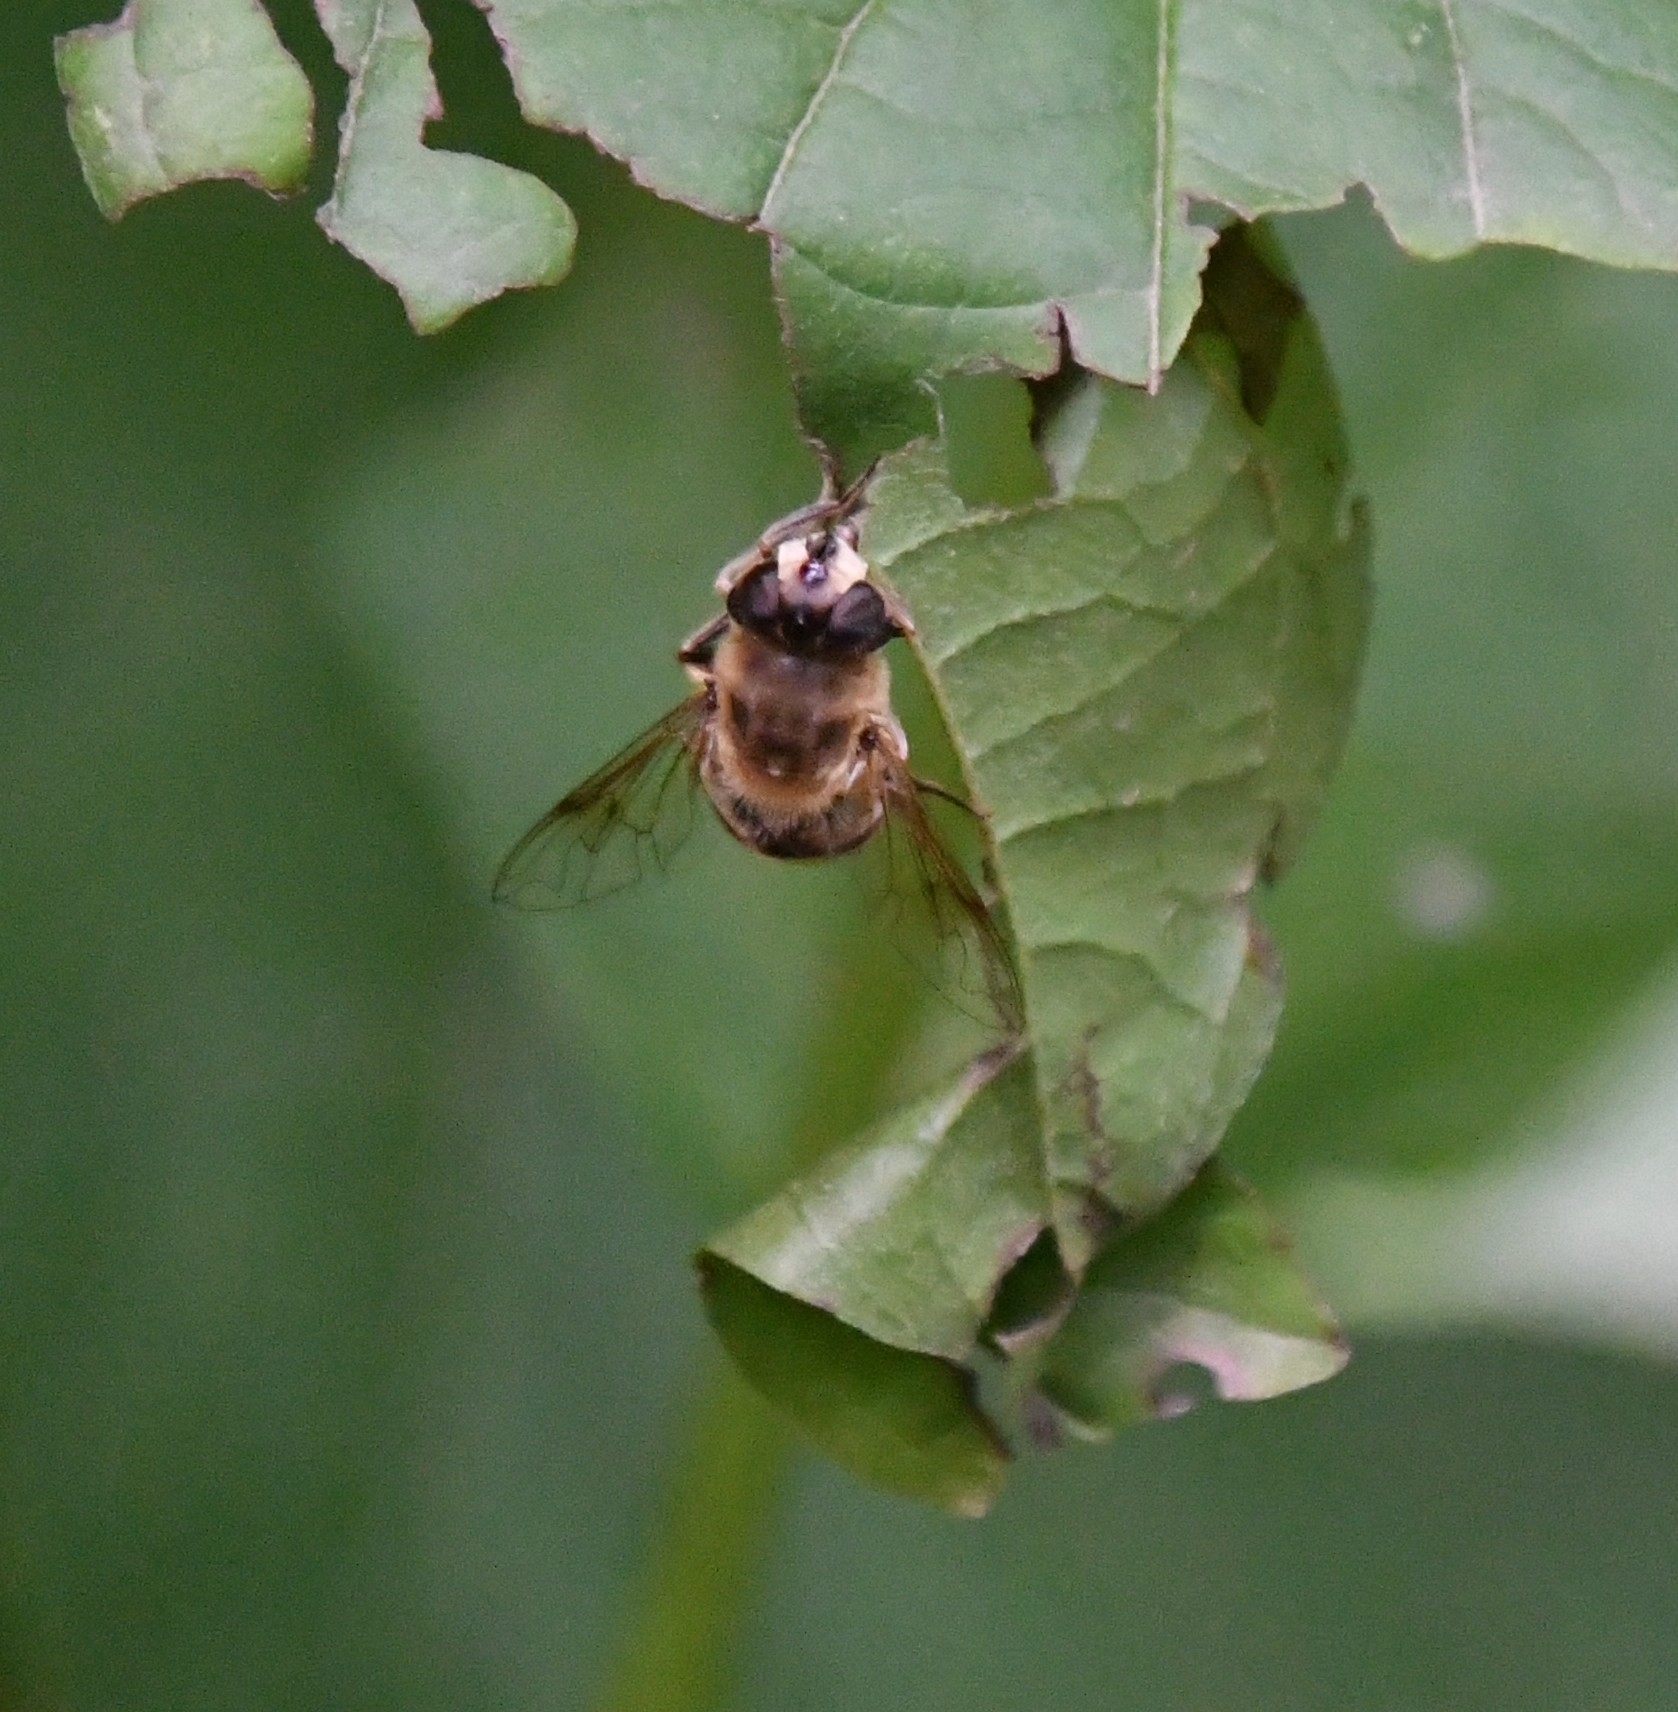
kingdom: Animalia
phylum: Arthropoda
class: Insecta
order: Diptera
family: Syrphidae
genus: Eristalis
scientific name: Eristalis tenax
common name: Drone fly
